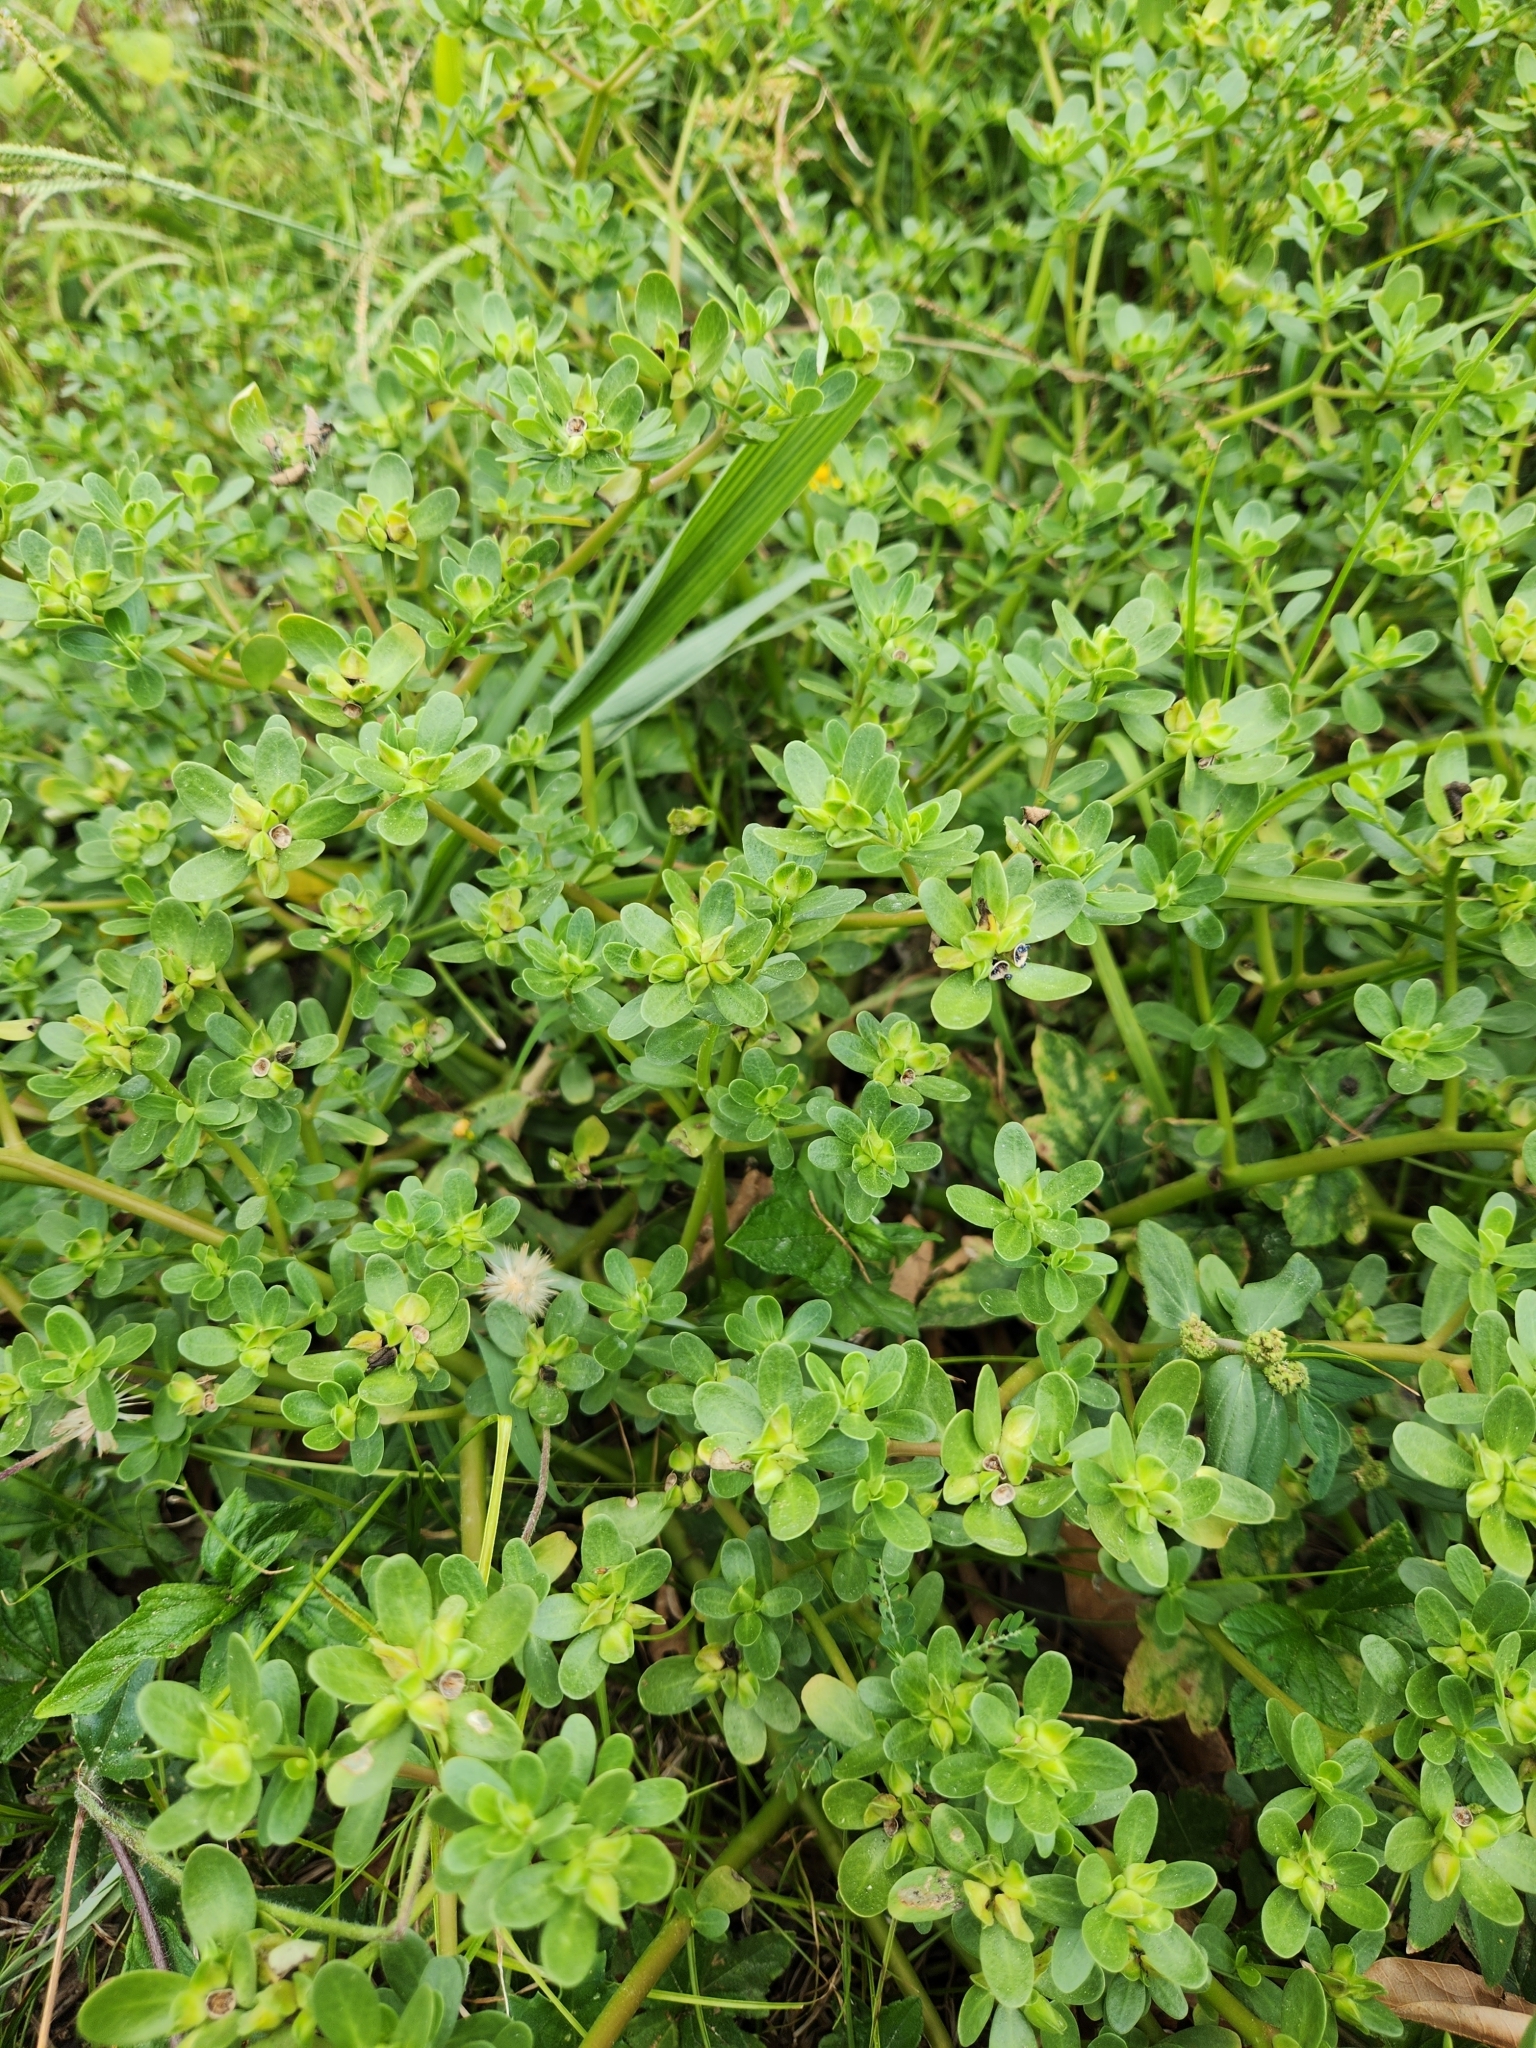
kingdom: Plantae
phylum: Tracheophyta
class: Magnoliopsida
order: Caryophyllales
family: Portulacaceae
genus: Portulaca
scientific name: Portulaca oleracea
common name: Common purslane
